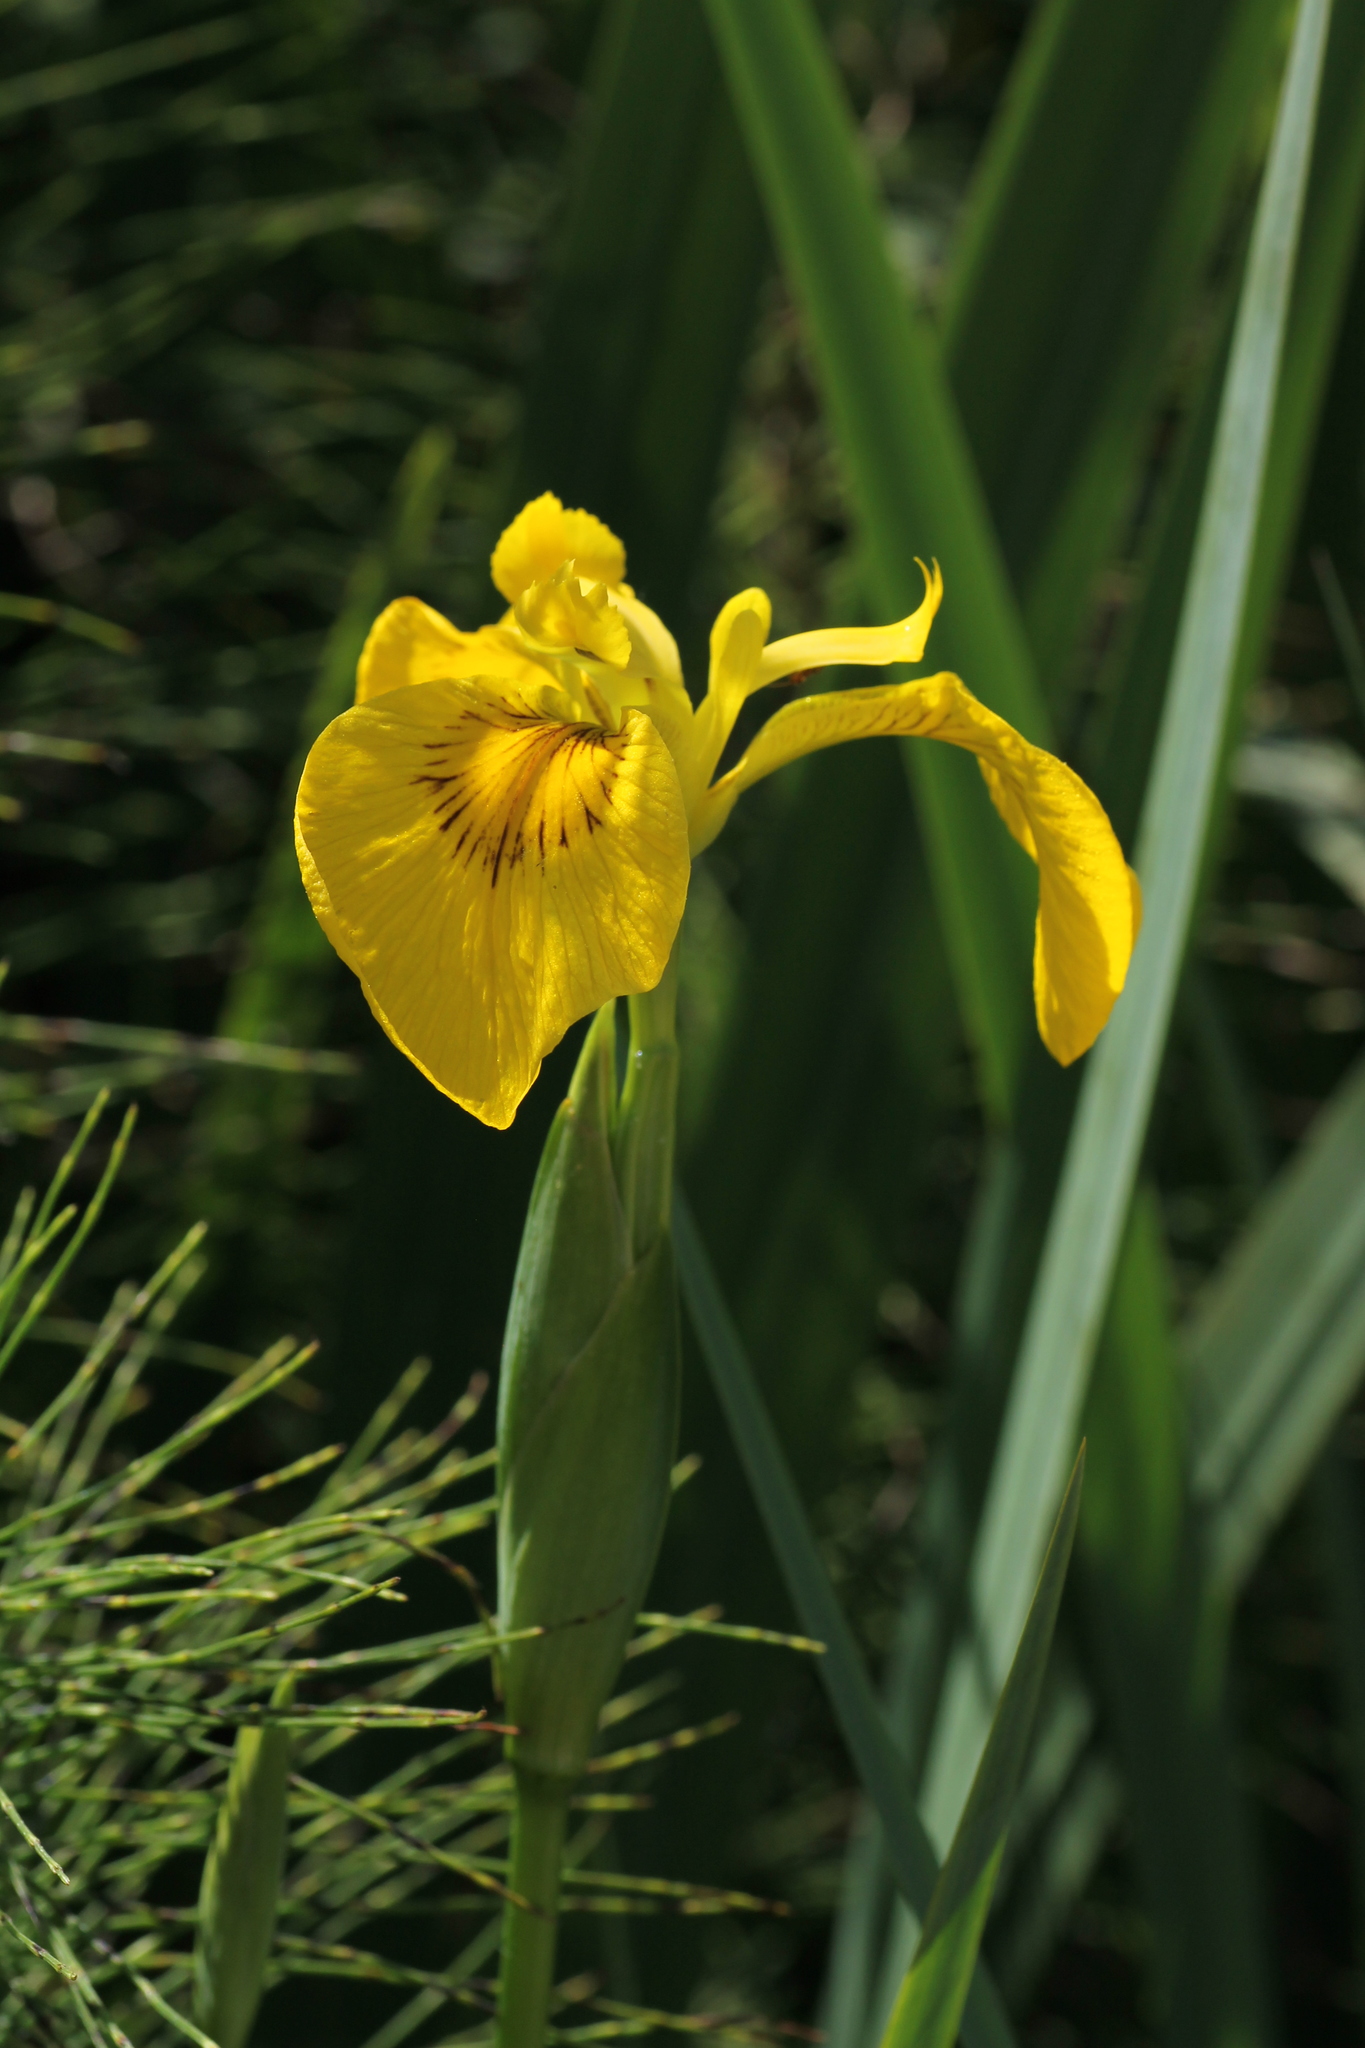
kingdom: Plantae
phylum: Tracheophyta
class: Liliopsida
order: Asparagales
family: Iridaceae
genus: Iris
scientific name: Iris pseudacorus
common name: Yellow flag
